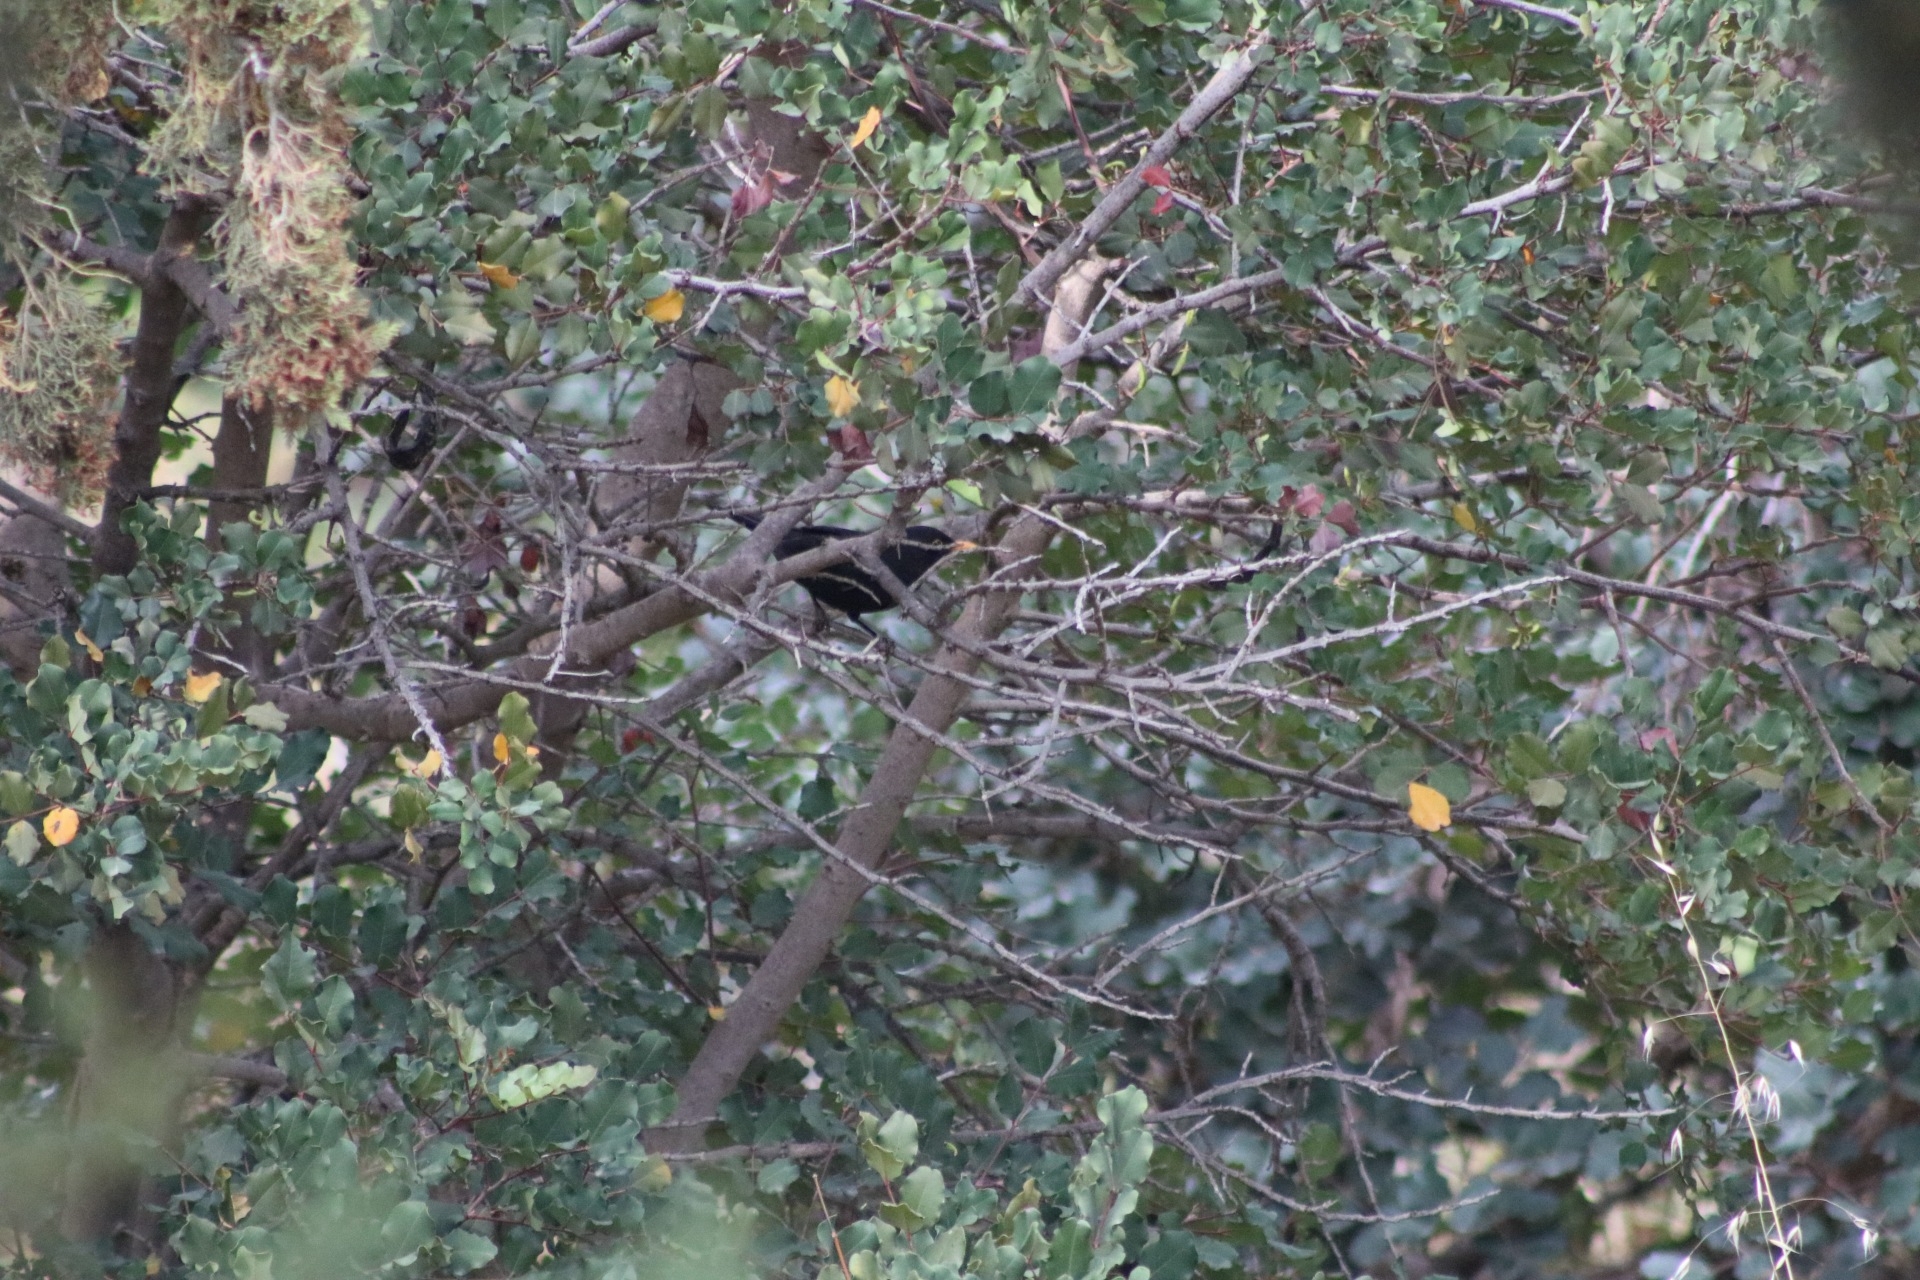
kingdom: Animalia
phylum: Chordata
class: Aves
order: Passeriformes
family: Turdidae
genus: Turdus
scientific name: Turdus merula
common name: Common blackbird
